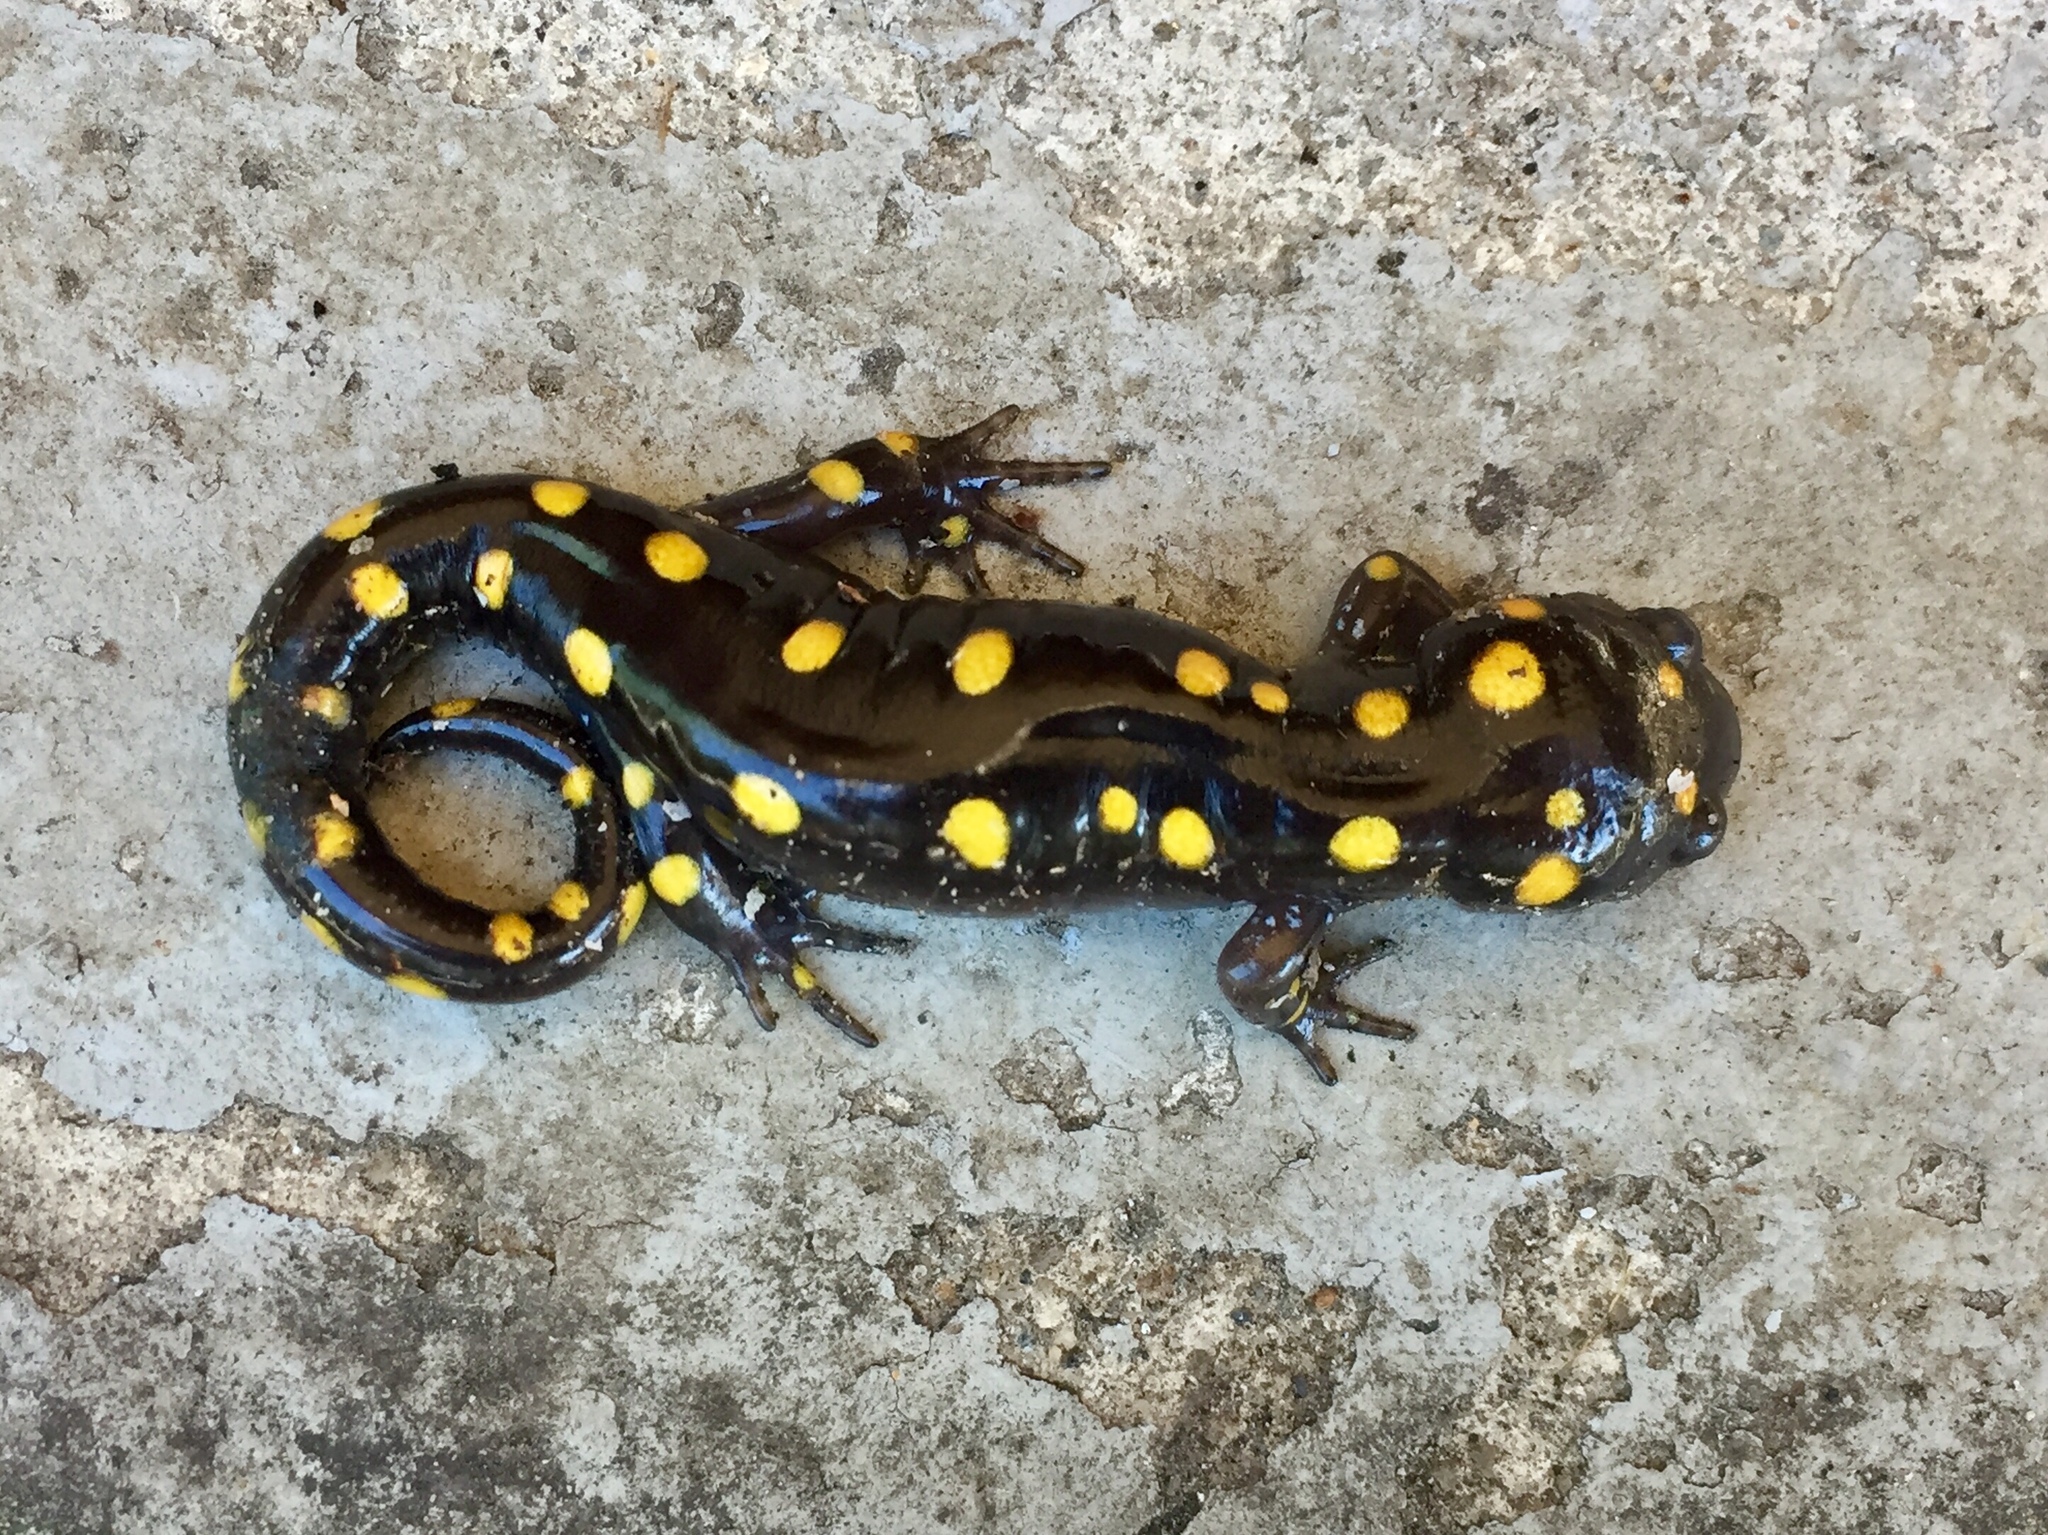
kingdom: Animalia
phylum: Chordata
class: Amphibia
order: Caudata
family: Ambystomatidae
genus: Ambystoma
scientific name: Ambystoma maculatum
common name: Spotted salamander
